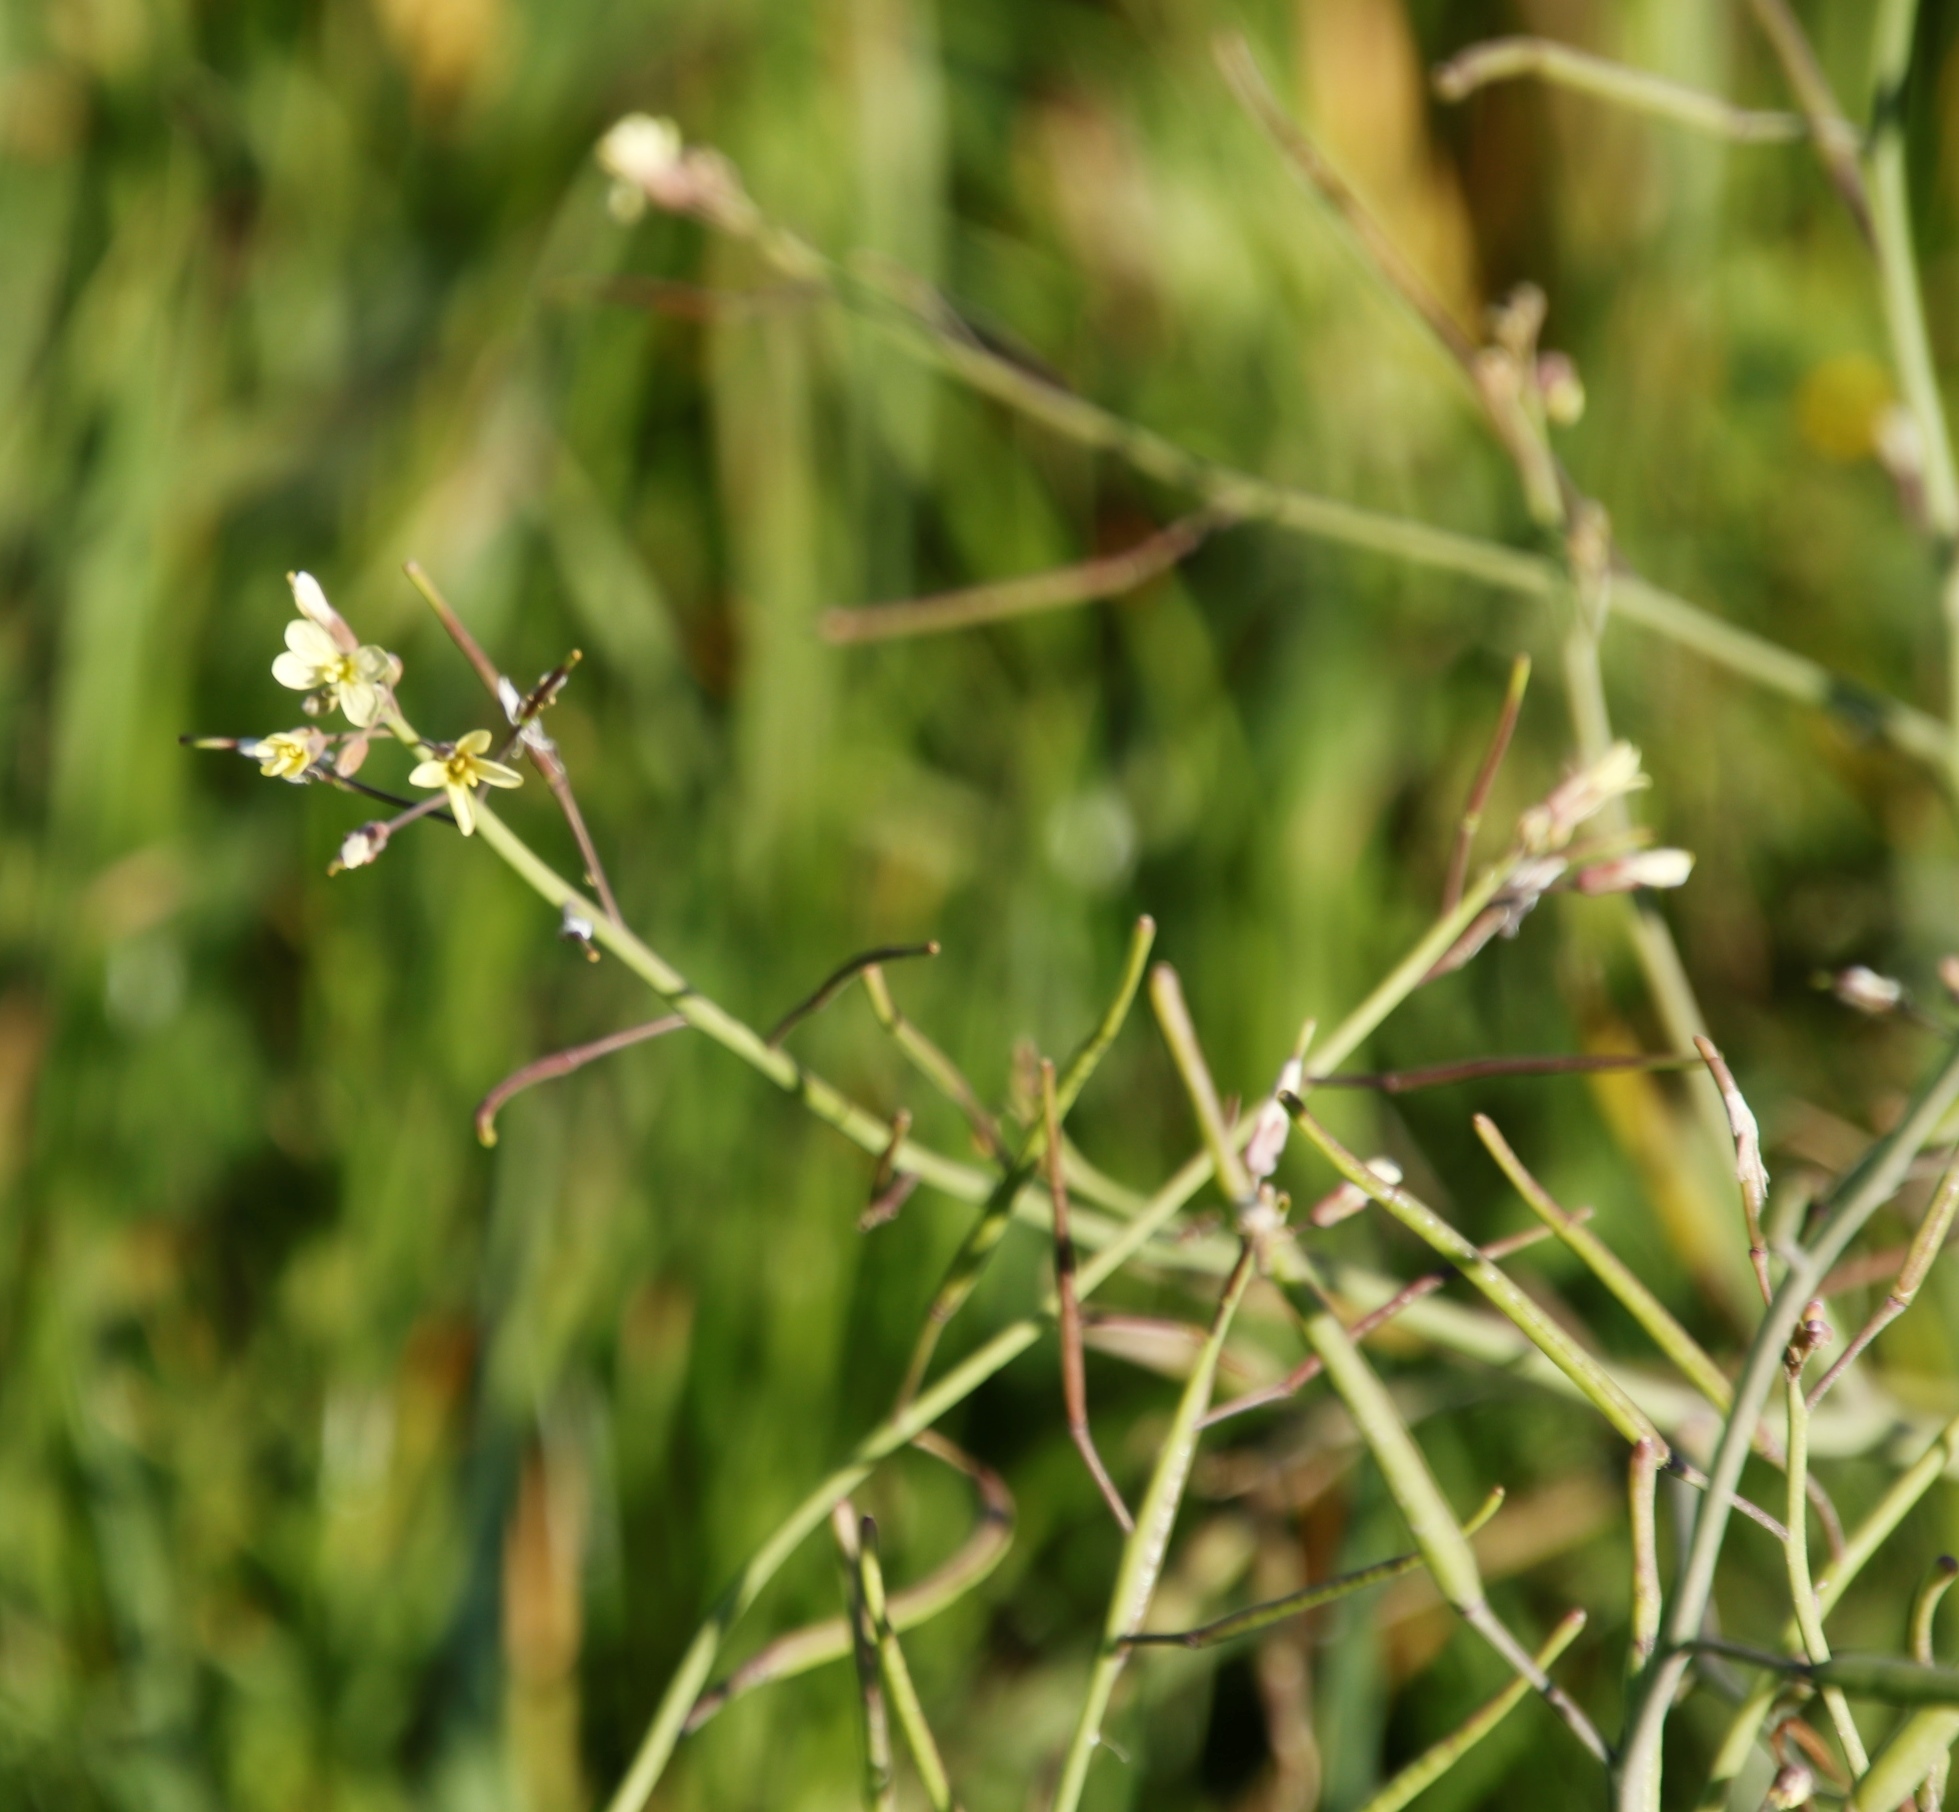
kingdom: Plantae
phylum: Tracheophyta
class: Magnoliopsida
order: Brassicales
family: Brassicaceae
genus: Brassica
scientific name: Brassica tournefortii
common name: Pale cabbage
